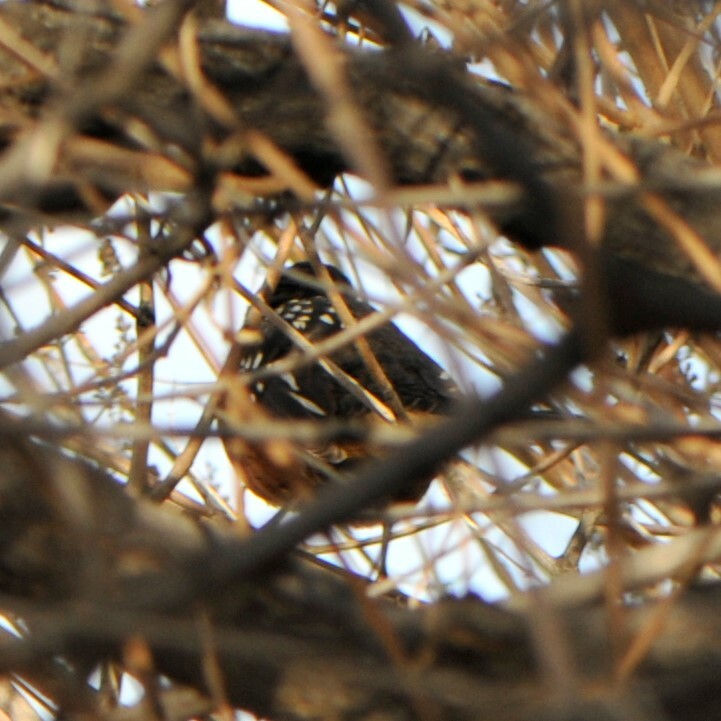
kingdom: Animalia
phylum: Chordata
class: Aves
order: Passeriformes
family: Passerellidae
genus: Pipilo
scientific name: Pipilo maculatus
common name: Spotted towhee
